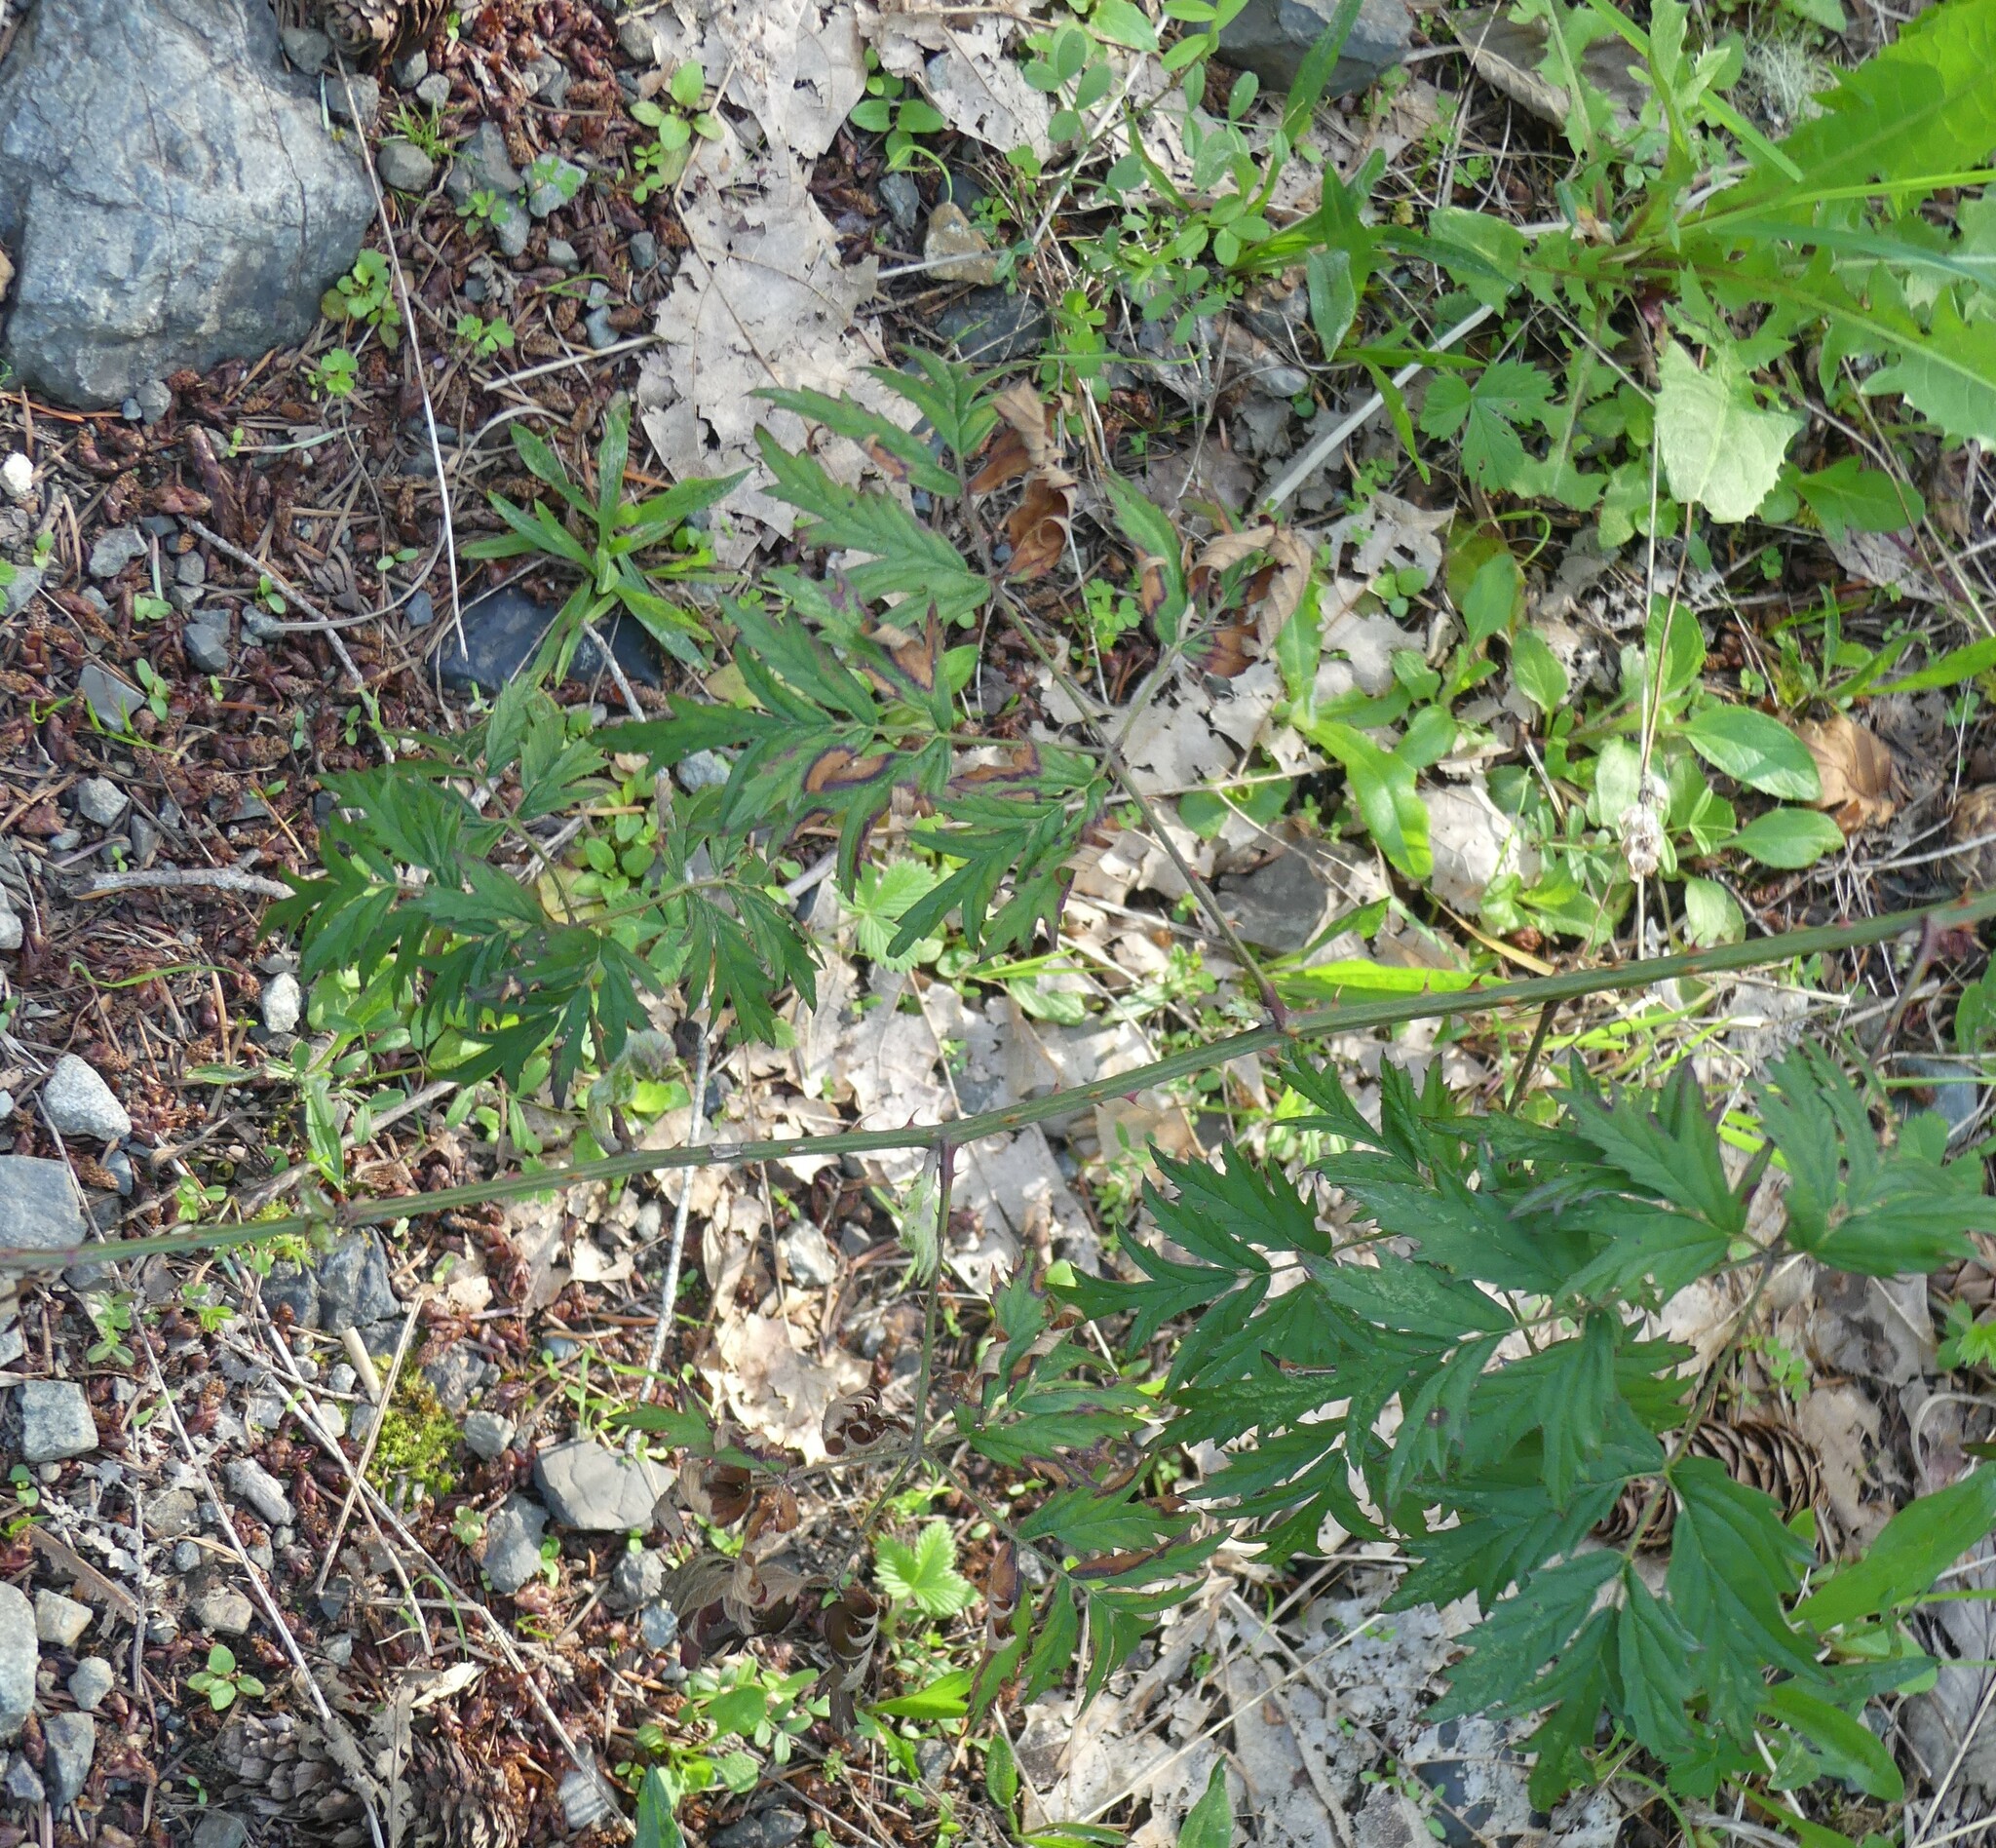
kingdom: Plantae
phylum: Tracheophyta
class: Magnoliopsida
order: Rosales
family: Rosaceae
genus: Rubus
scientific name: Rubus laciniatus
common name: Evergreen blackberry
